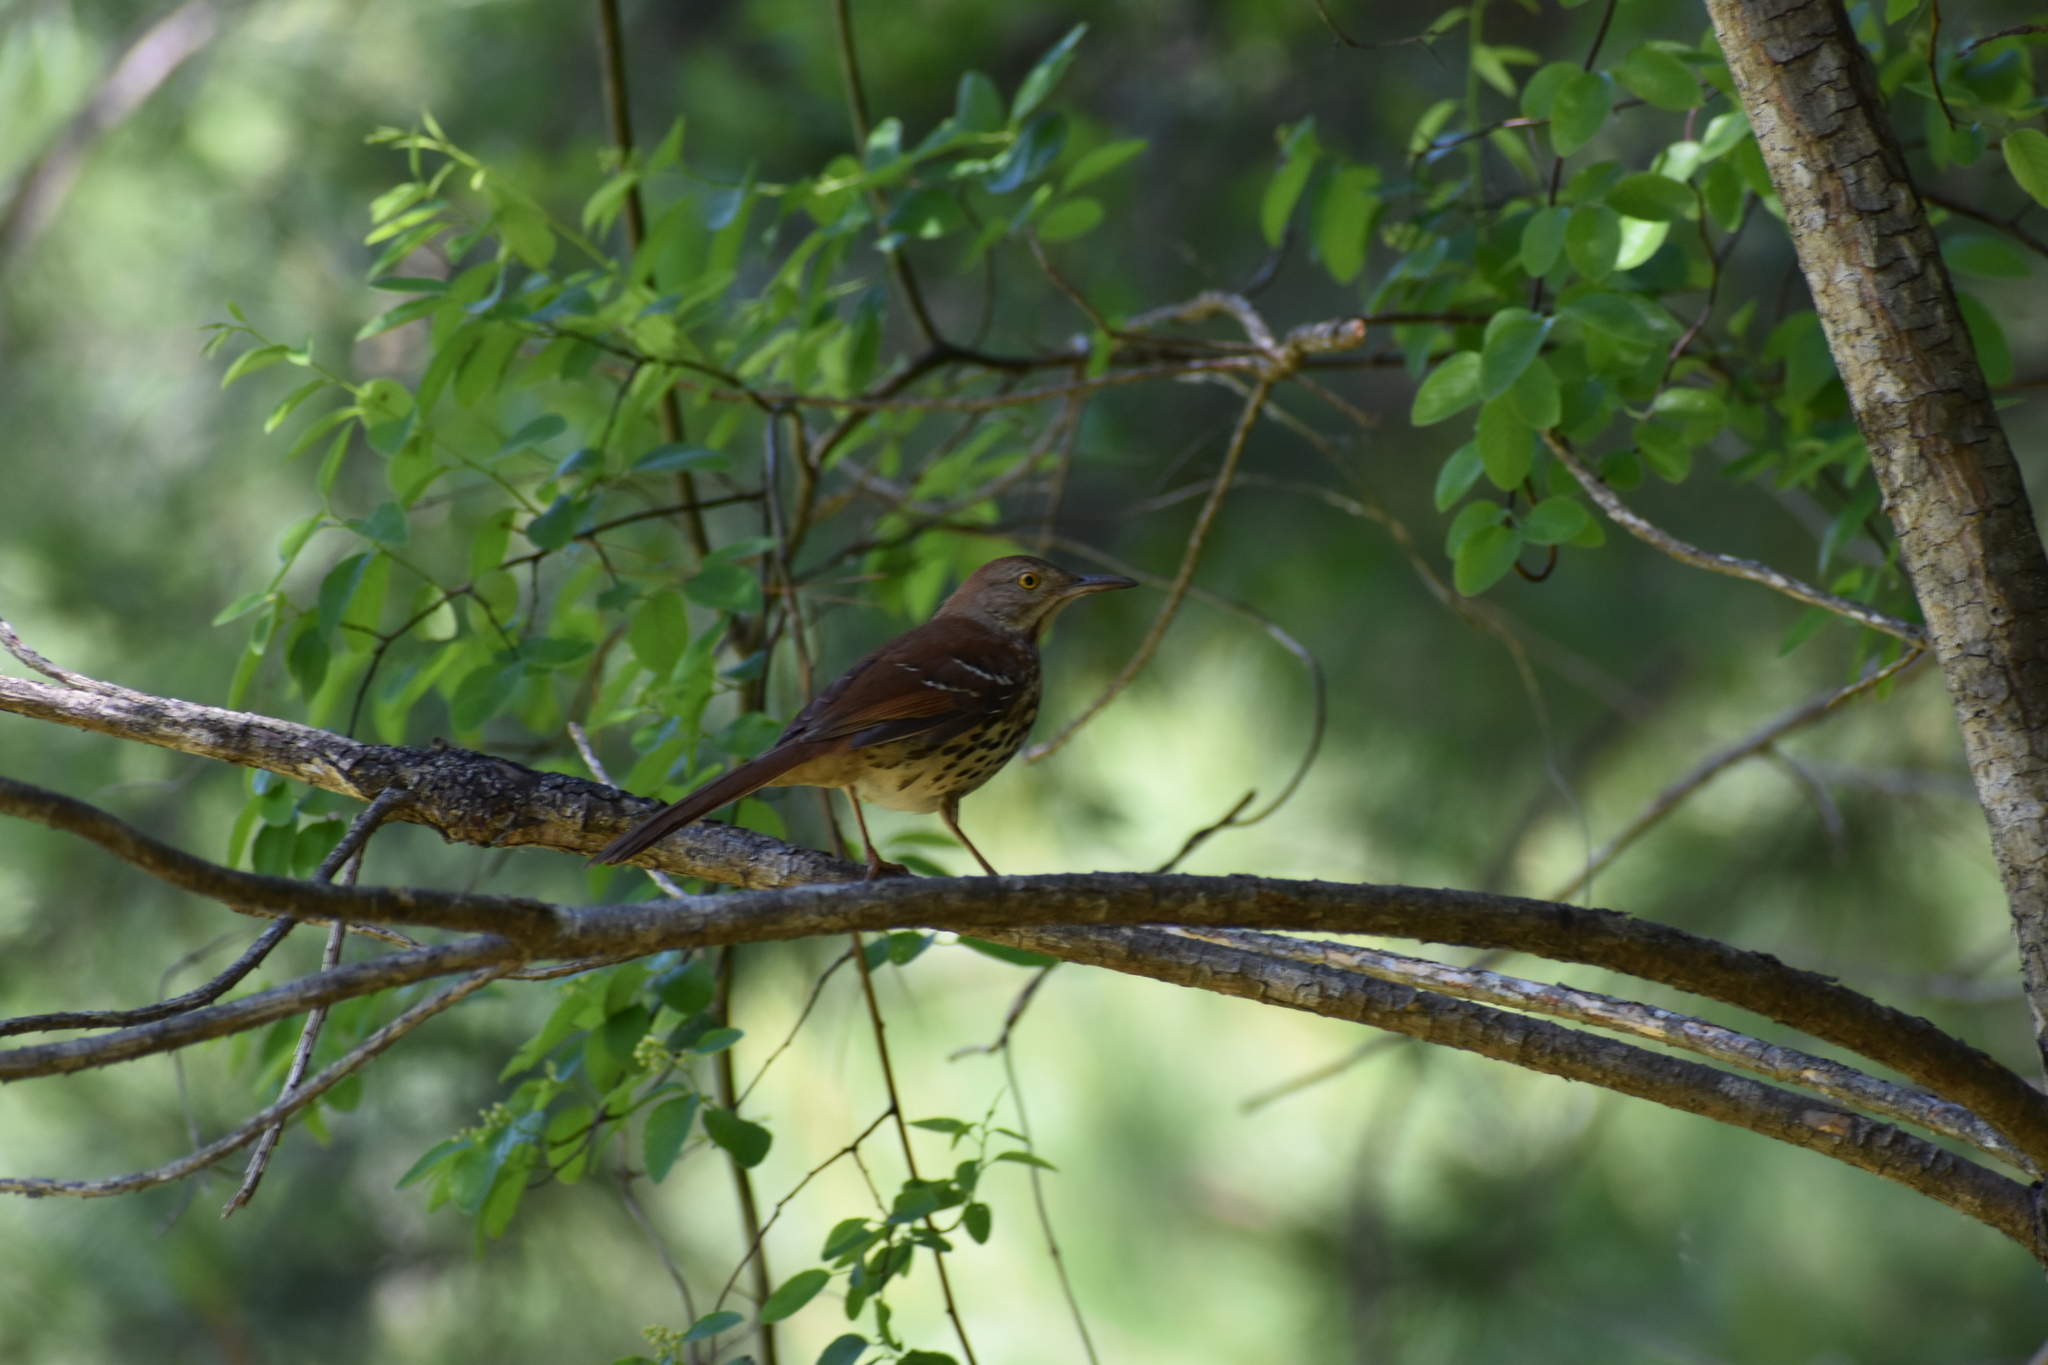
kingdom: Animalia
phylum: Chordata
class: Aves
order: Passeriformes
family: Mimidae
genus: Toxostoma
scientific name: Toxostoma rufum
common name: Brown thrasher
